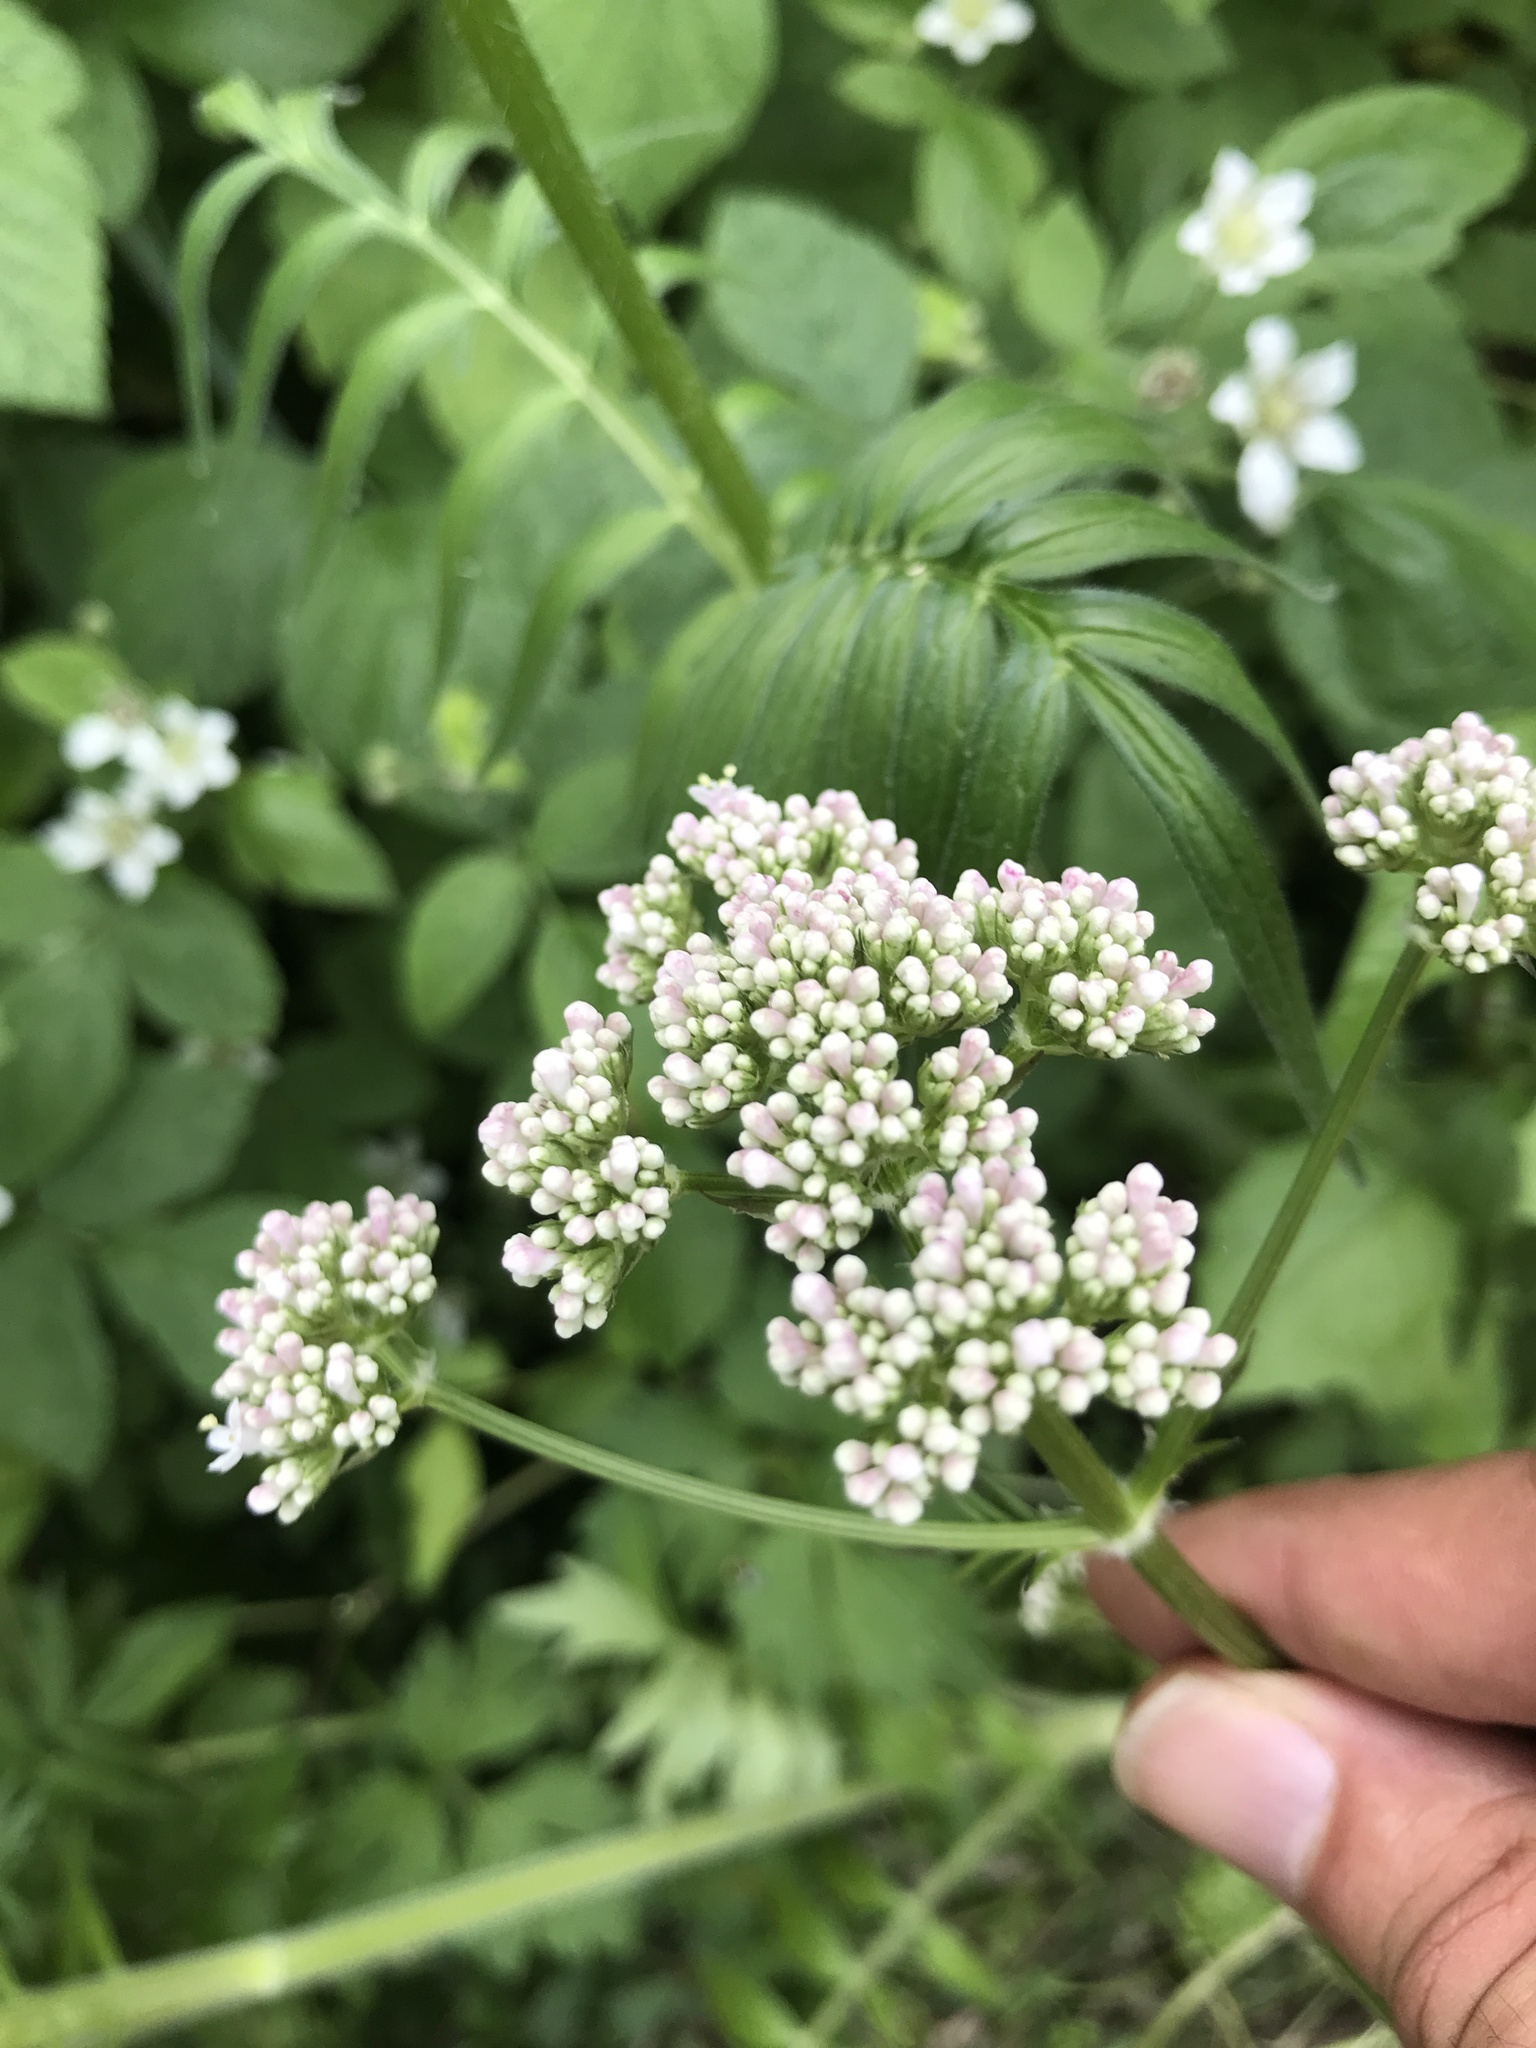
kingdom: Plantae
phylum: Tracheophyta
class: Magnoliopsida
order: Dipsacales
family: Caprifoliaceae
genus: Valeriana
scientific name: Valeriana officinalis
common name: Common valerian
